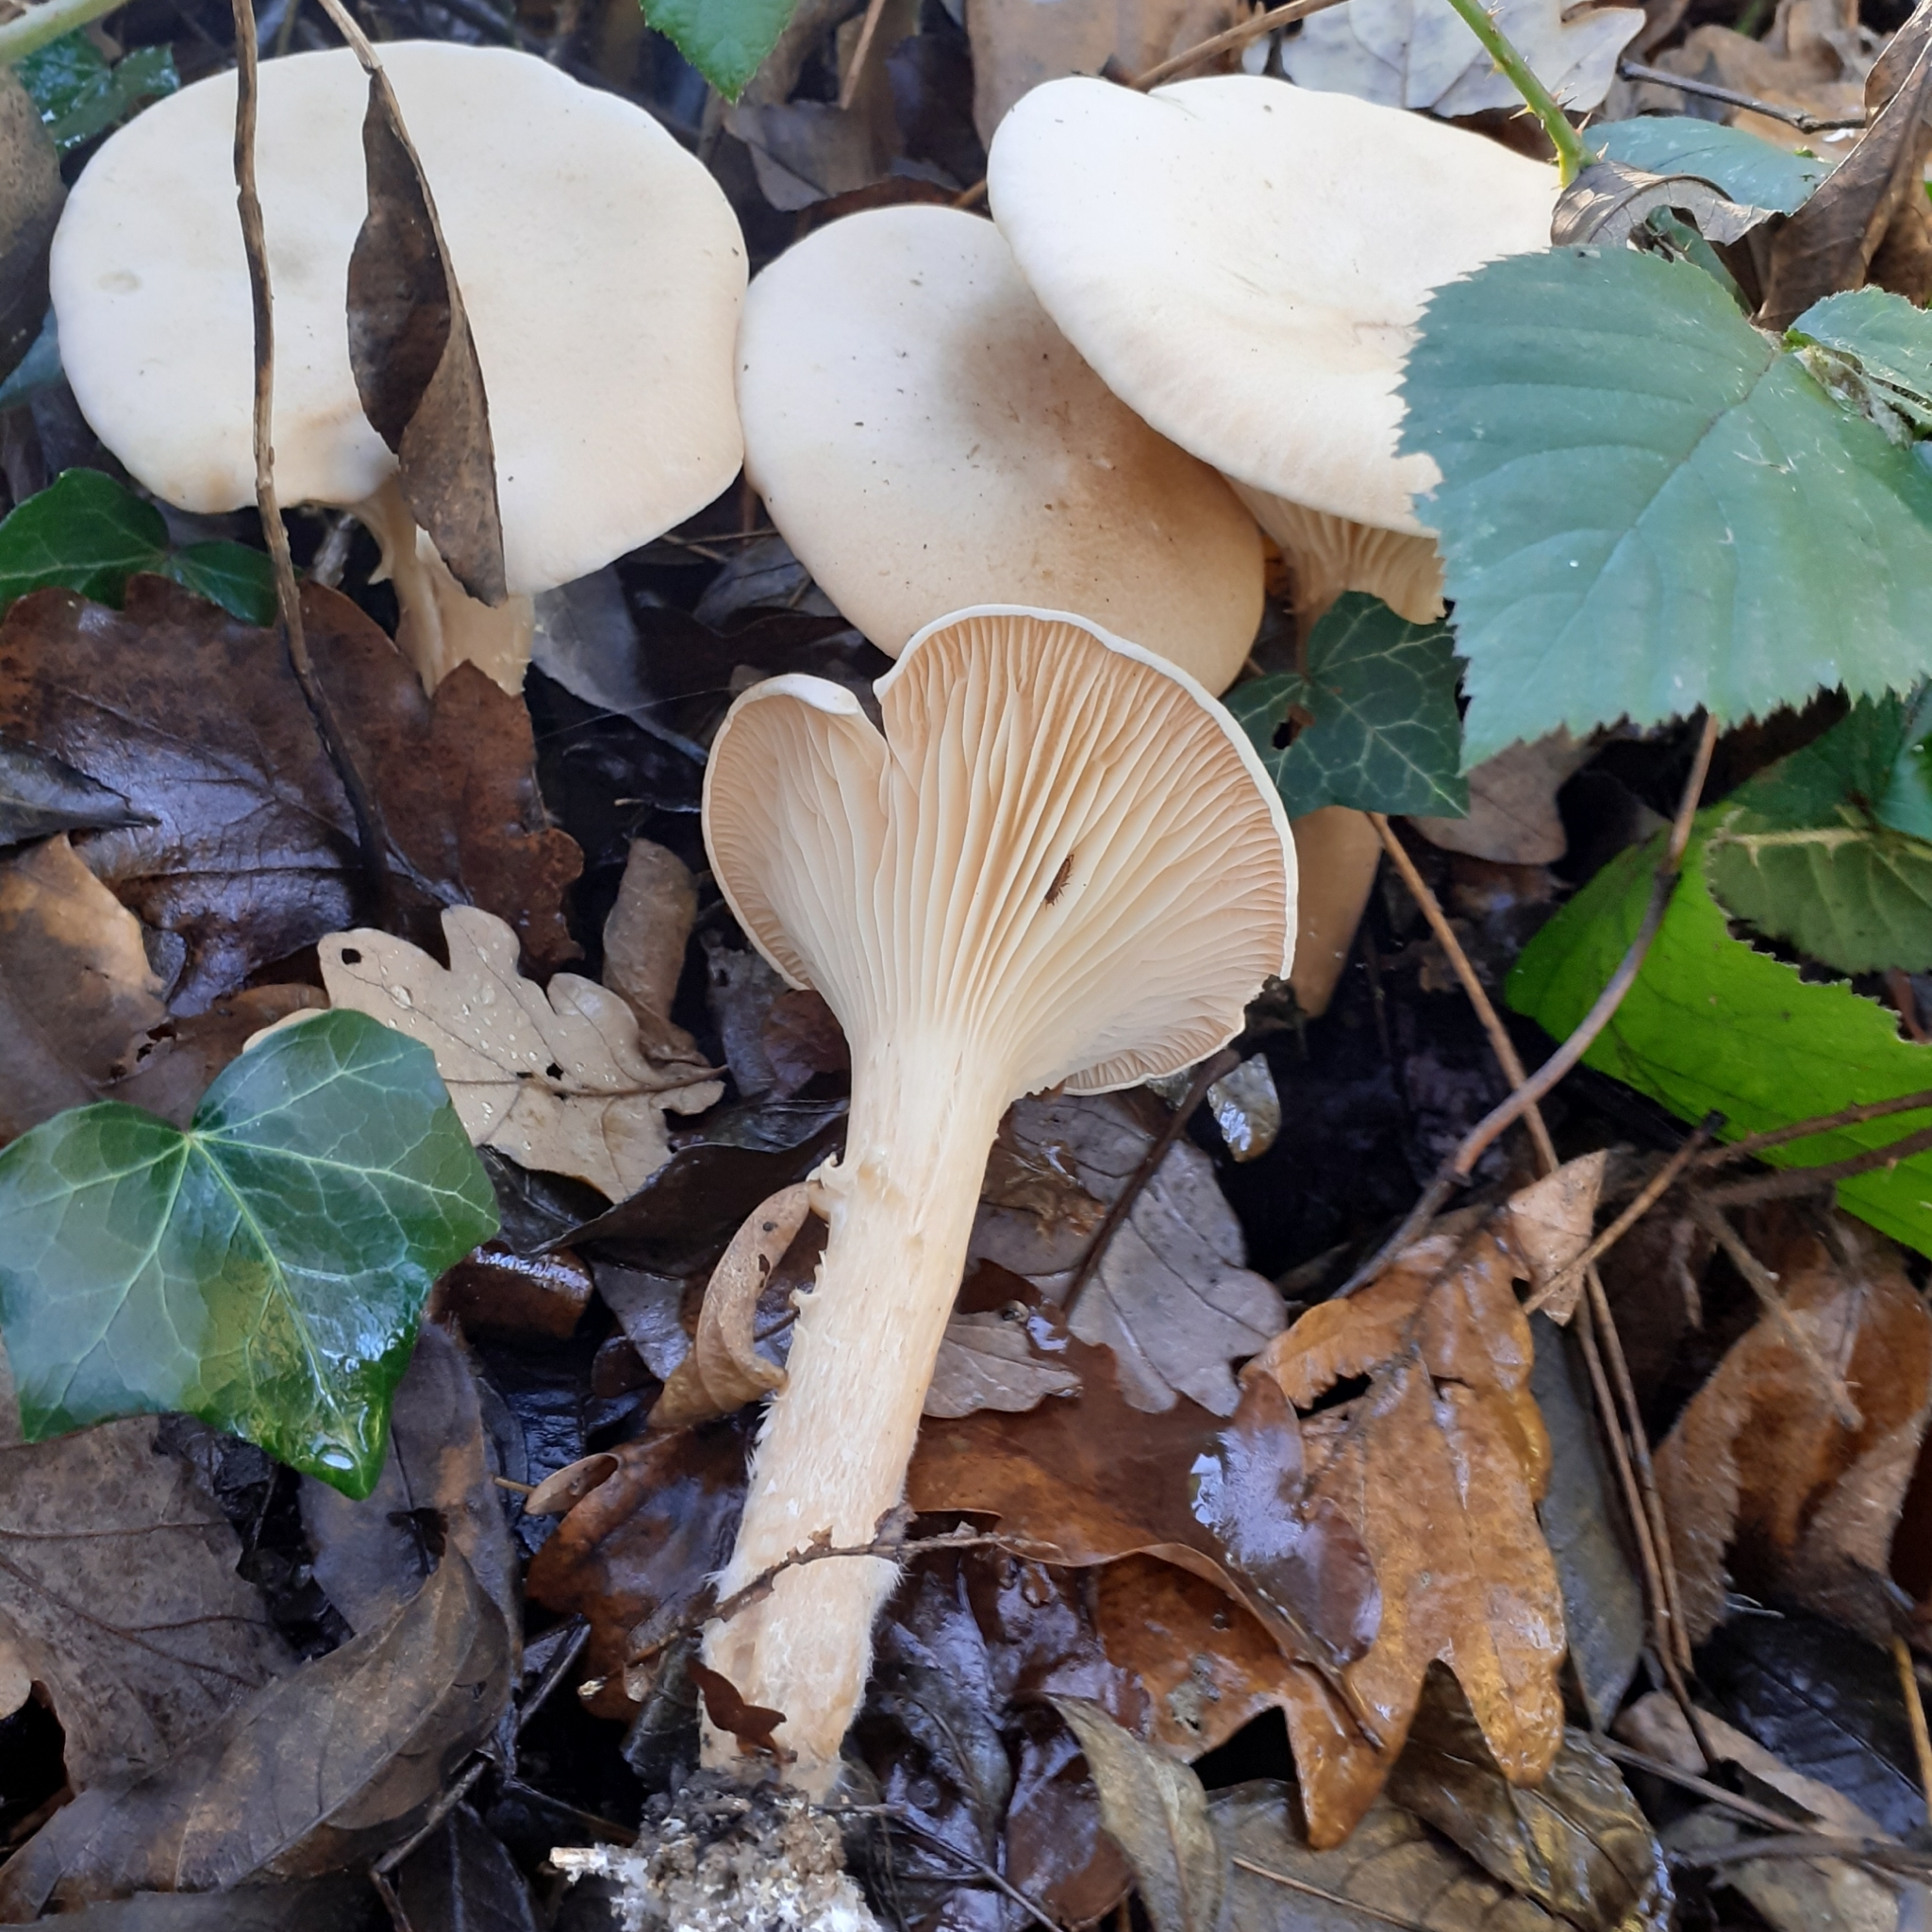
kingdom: Fungi
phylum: Basidiomycota
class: Agaricomycetes
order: Agaricales
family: Tricholomataceae
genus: Infundibulicybe
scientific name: Infundibulicybe geotropa
